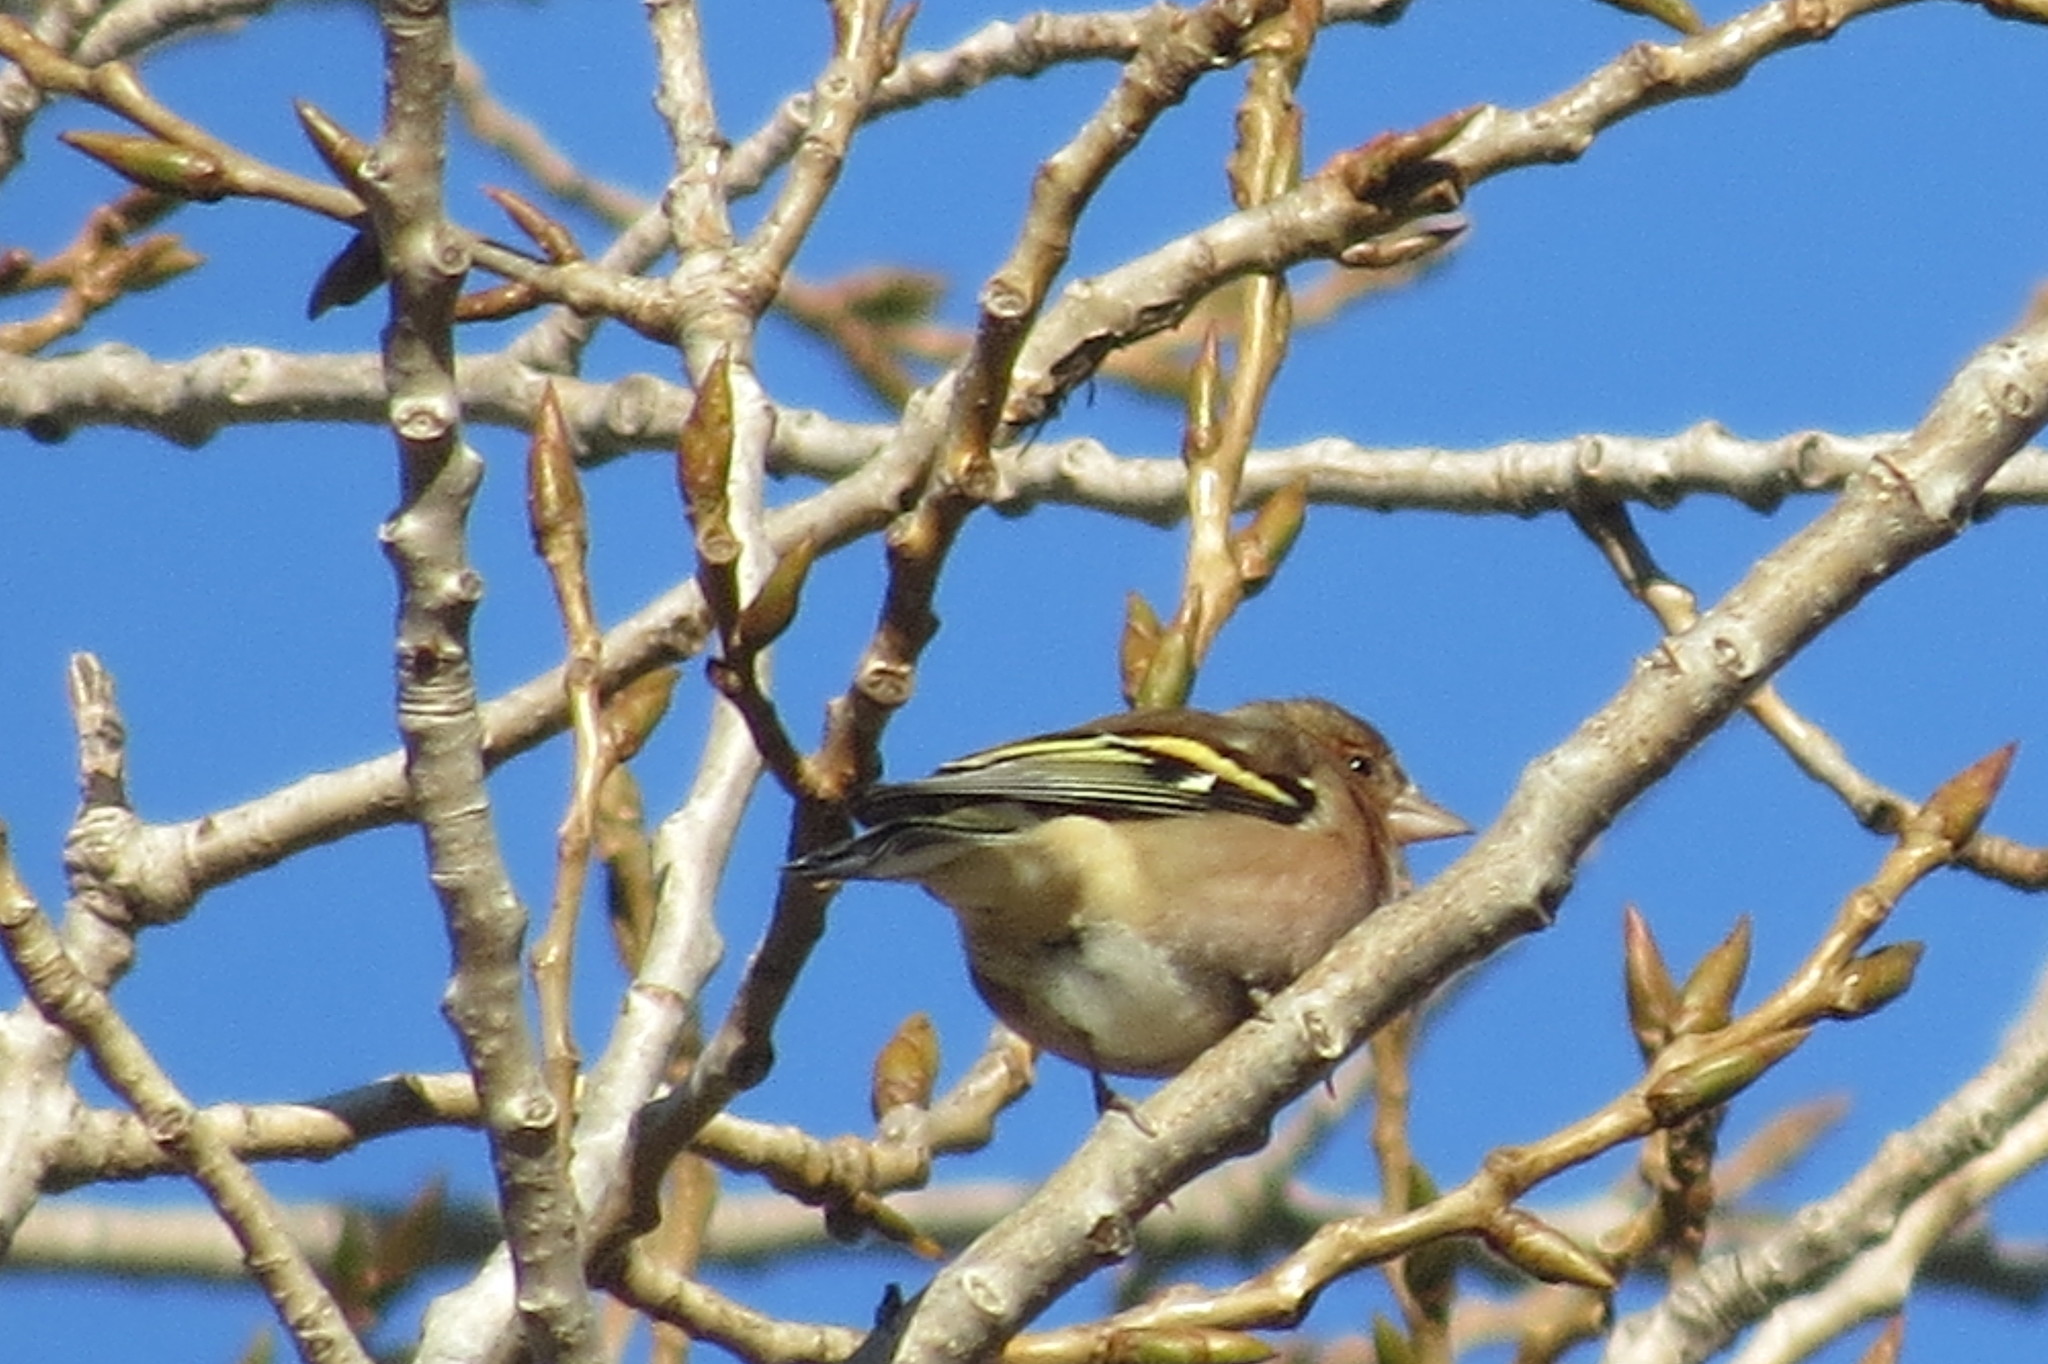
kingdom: Animalia
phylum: Chordata
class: Aves
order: Passeriformes
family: Fringillidae
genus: Fringilla
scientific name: Fringilla coelebs
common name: Common chaffinch
